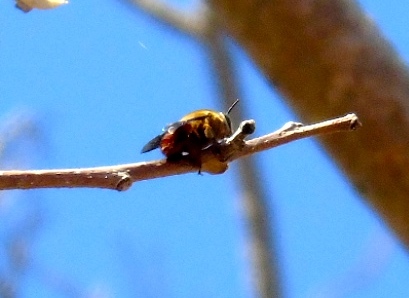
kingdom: Animalia
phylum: Arthropoda
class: Insecta
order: Hymenoptera
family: Apidae
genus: Centris
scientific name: Centris
